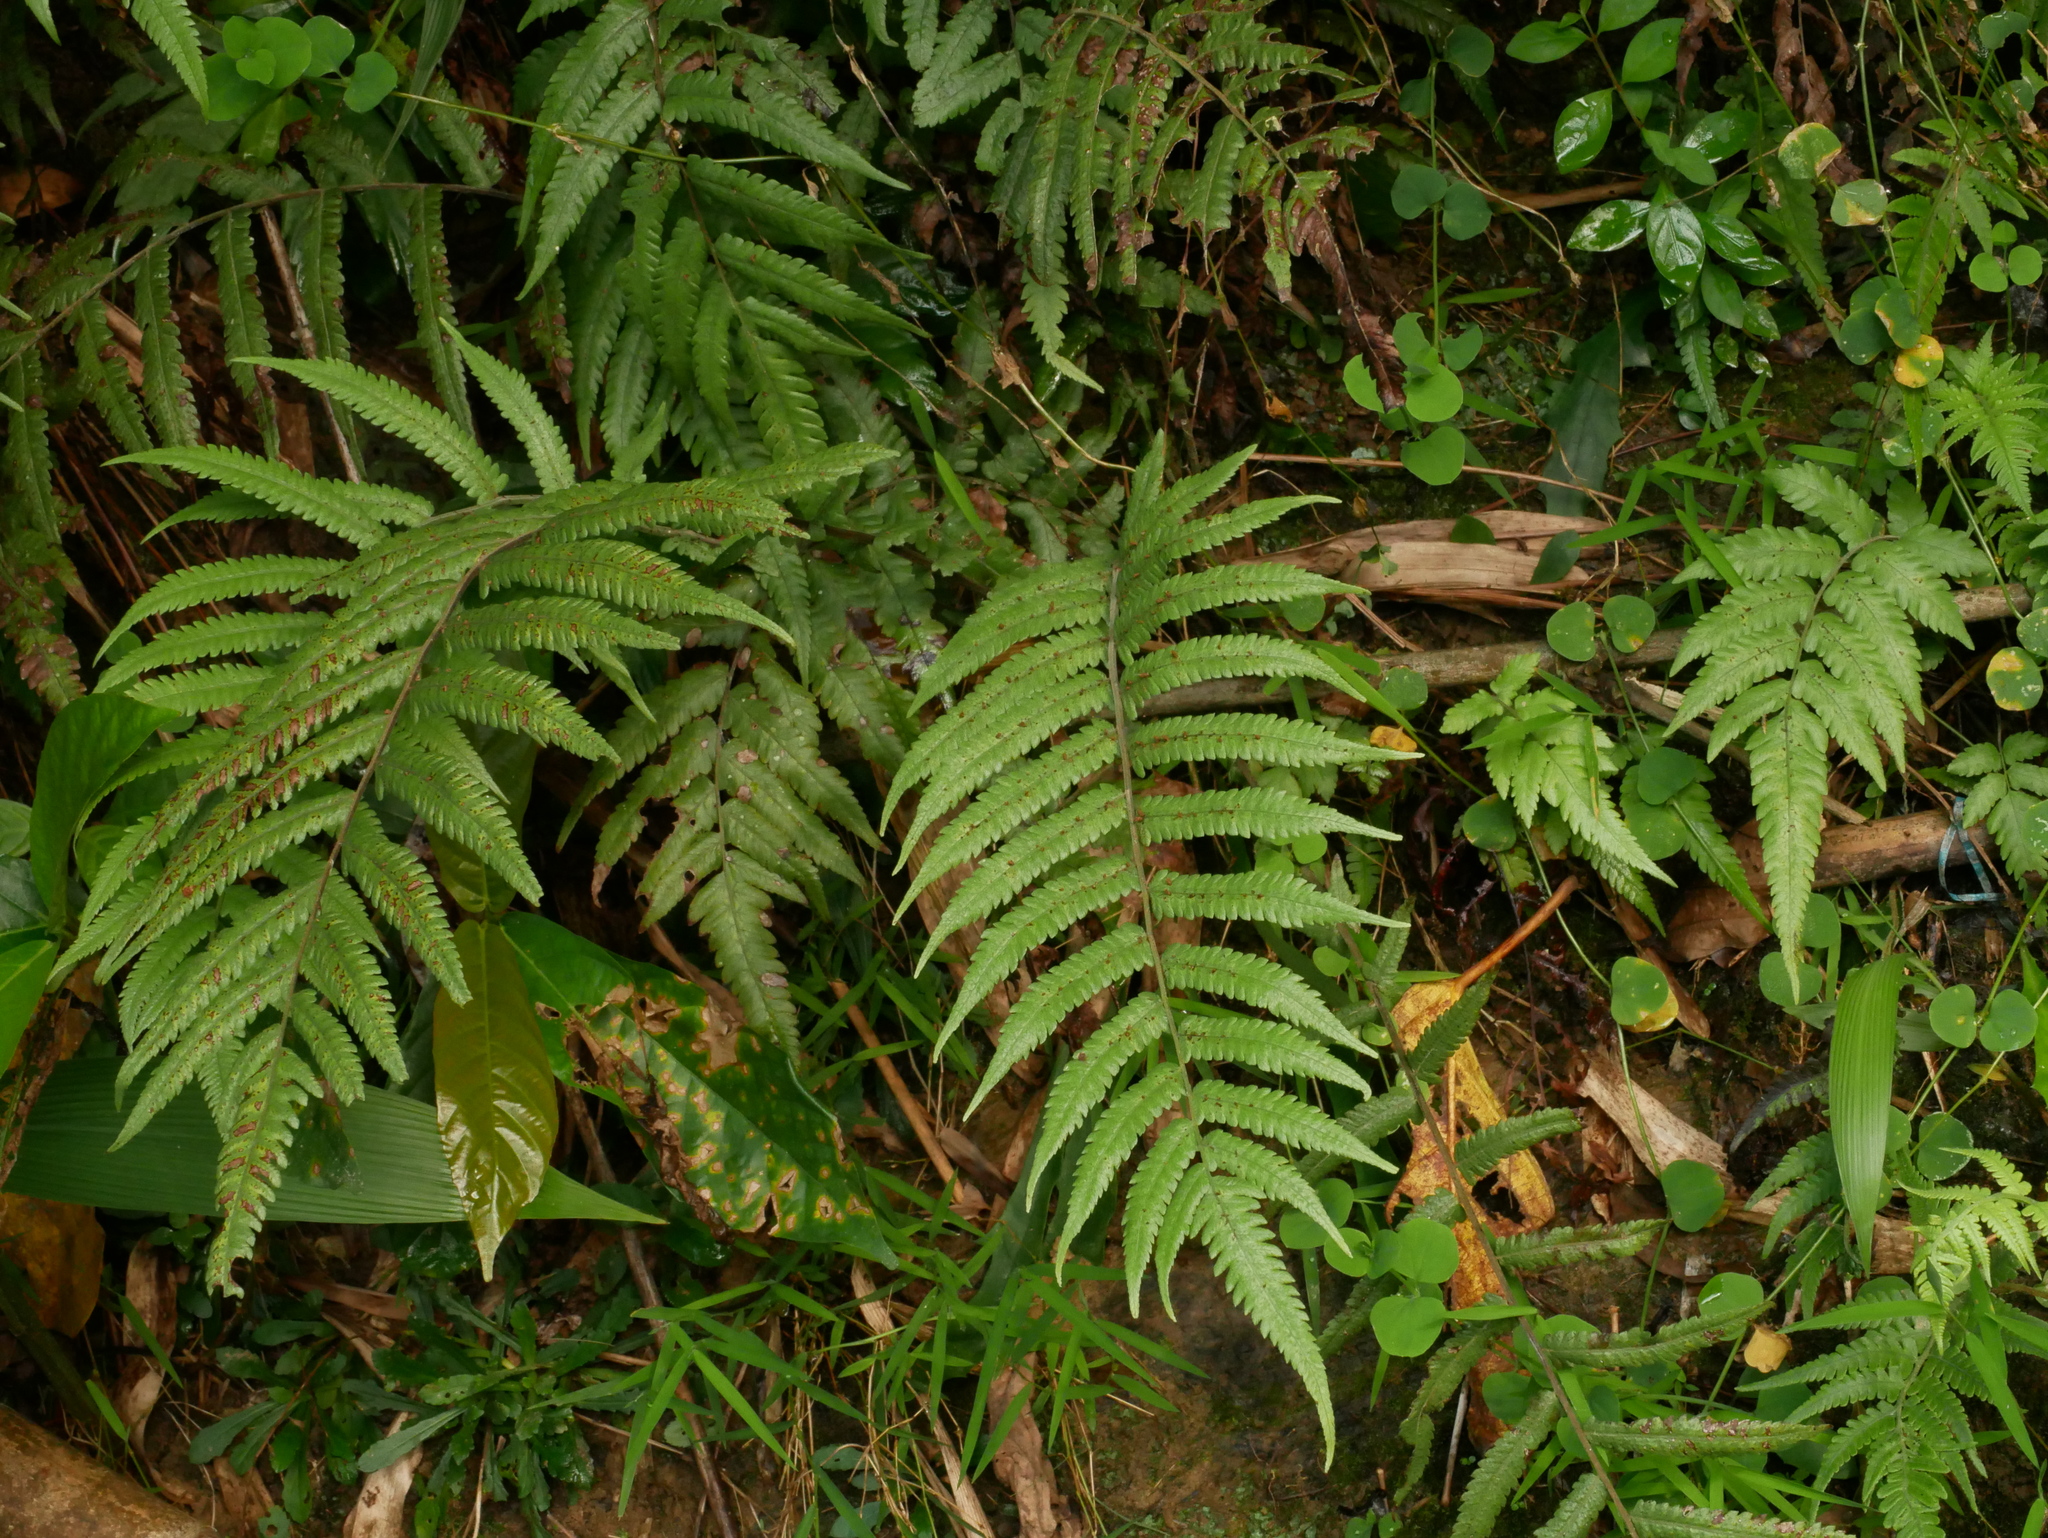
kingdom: Plantae
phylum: Tracheophyta
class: Polypodiopsida
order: Polypodiales
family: Thelypteridaceae
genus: Christella
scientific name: Christella latipinna
